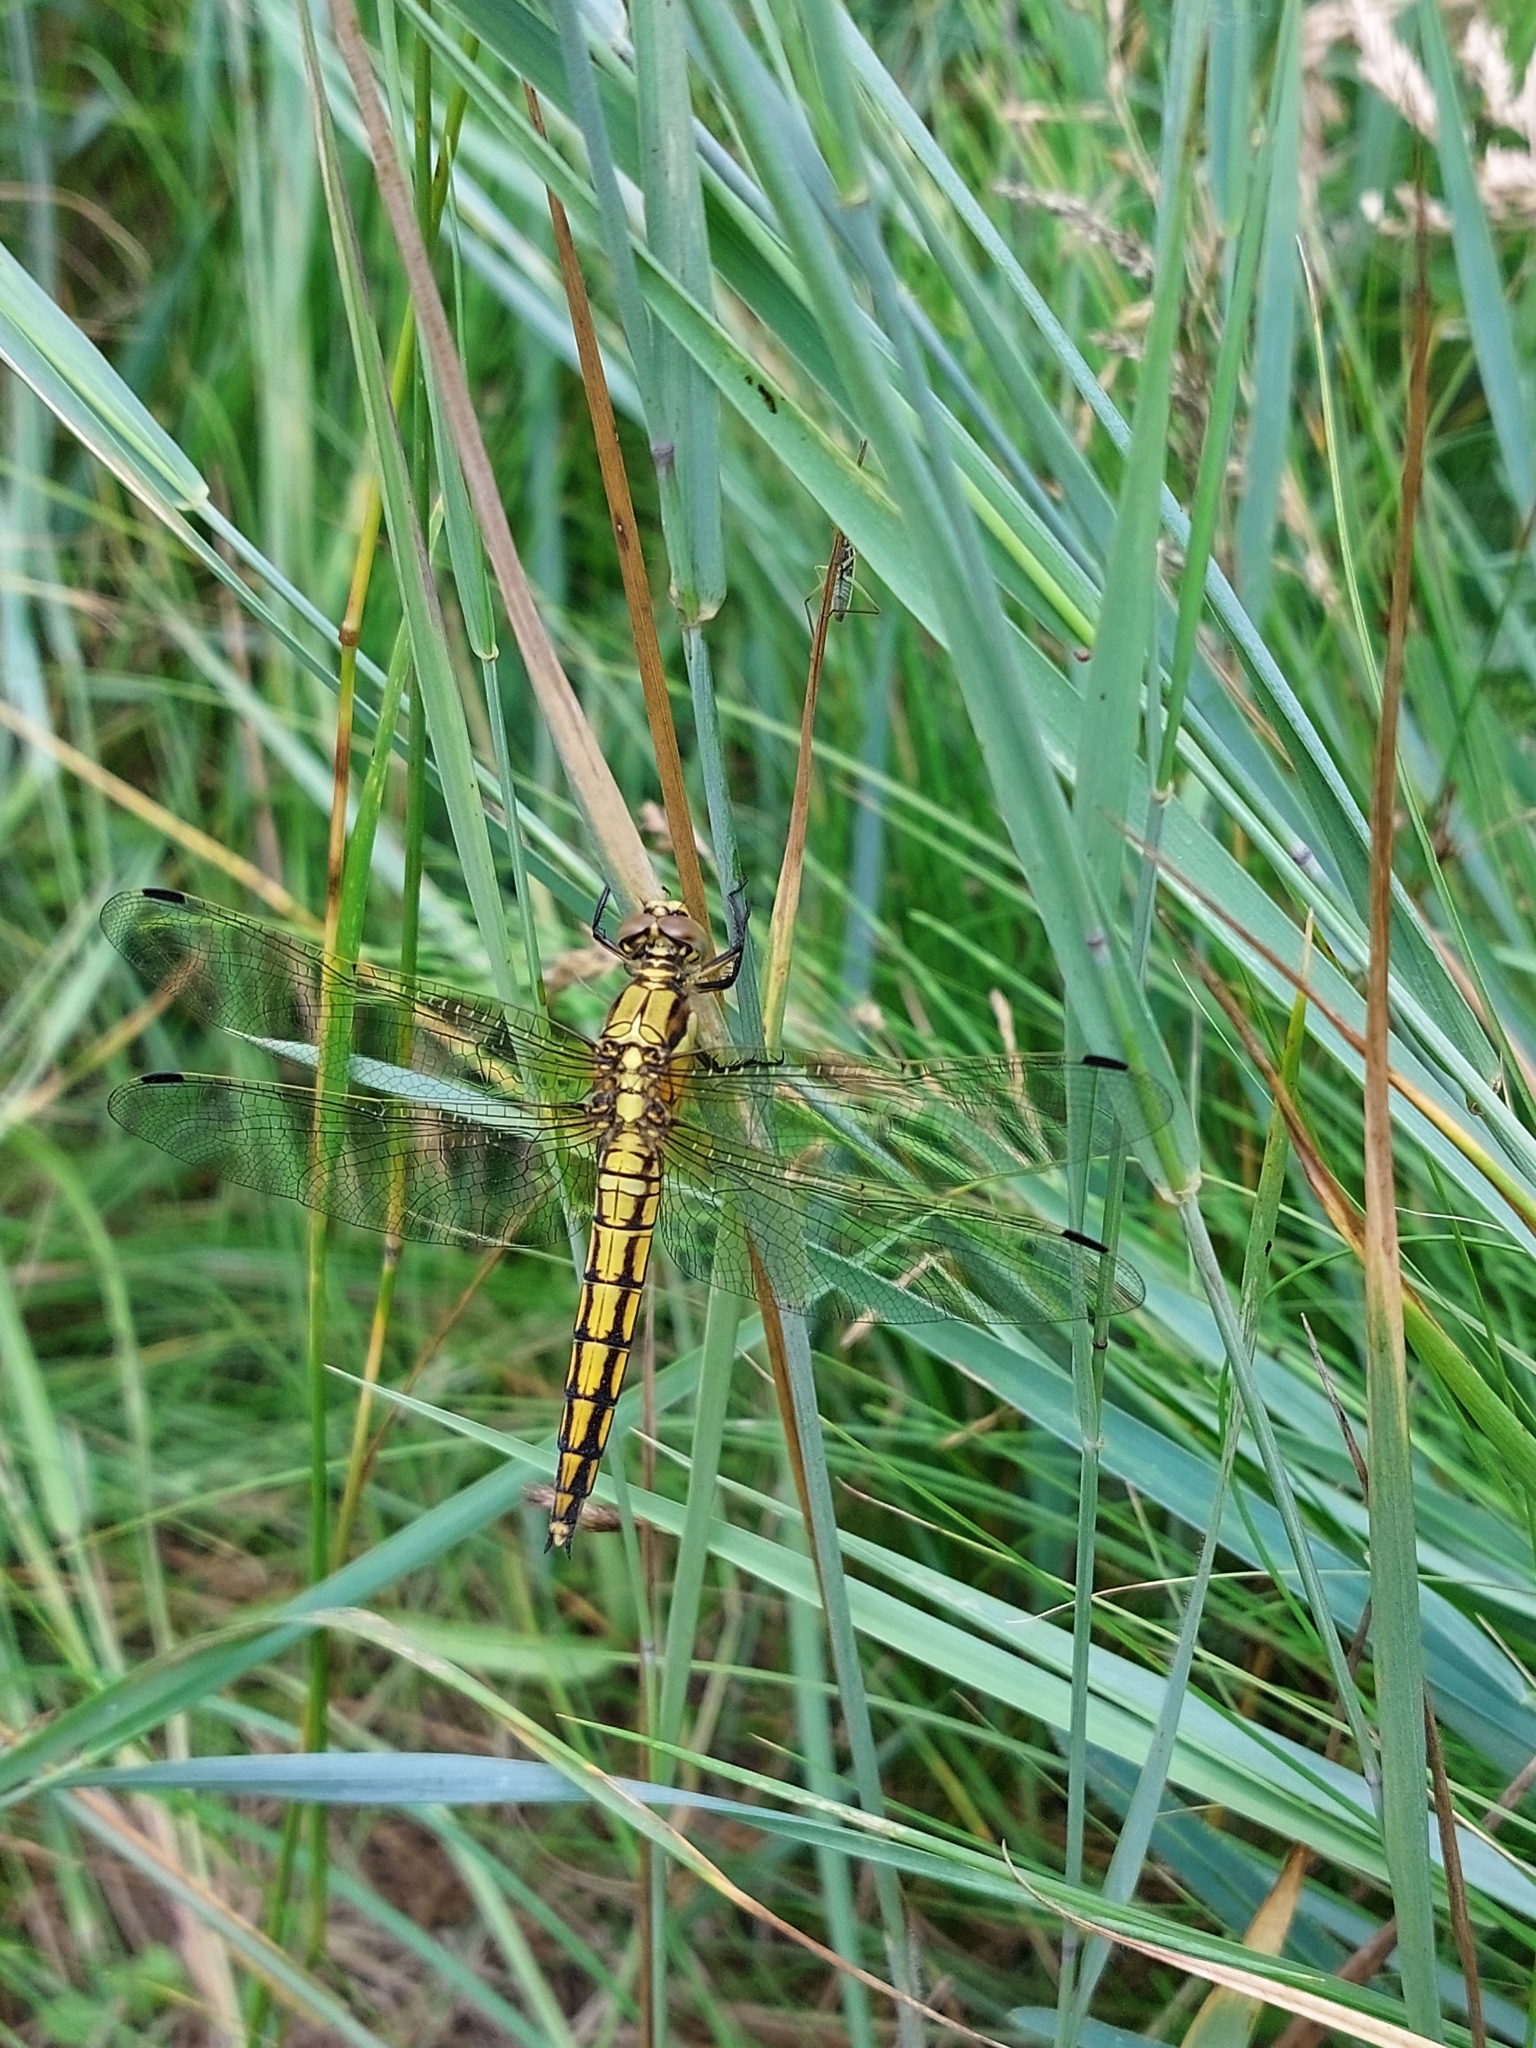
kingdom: Animalia
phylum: Arthropoda
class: Insecta
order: Odonata
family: Libellulidae
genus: Orthetrum
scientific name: Orthetrum cancellatum
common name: Black-tailed skimmer
